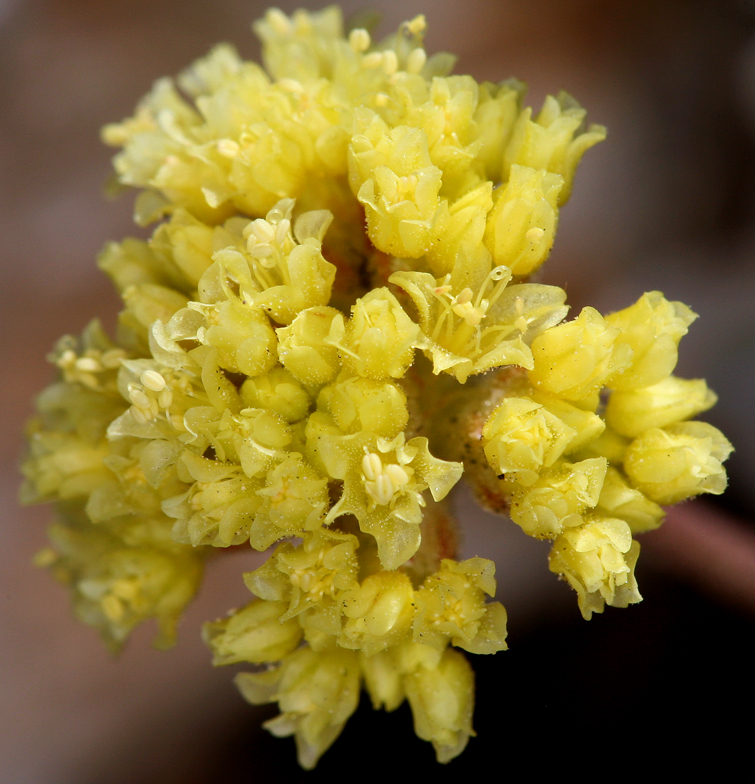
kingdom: Plantae
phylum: Tracheophyta
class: Magnoliopsida
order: Caryophyllales
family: Polygonaceae
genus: Eriogonum
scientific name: Eriogonum ochrocephalum
